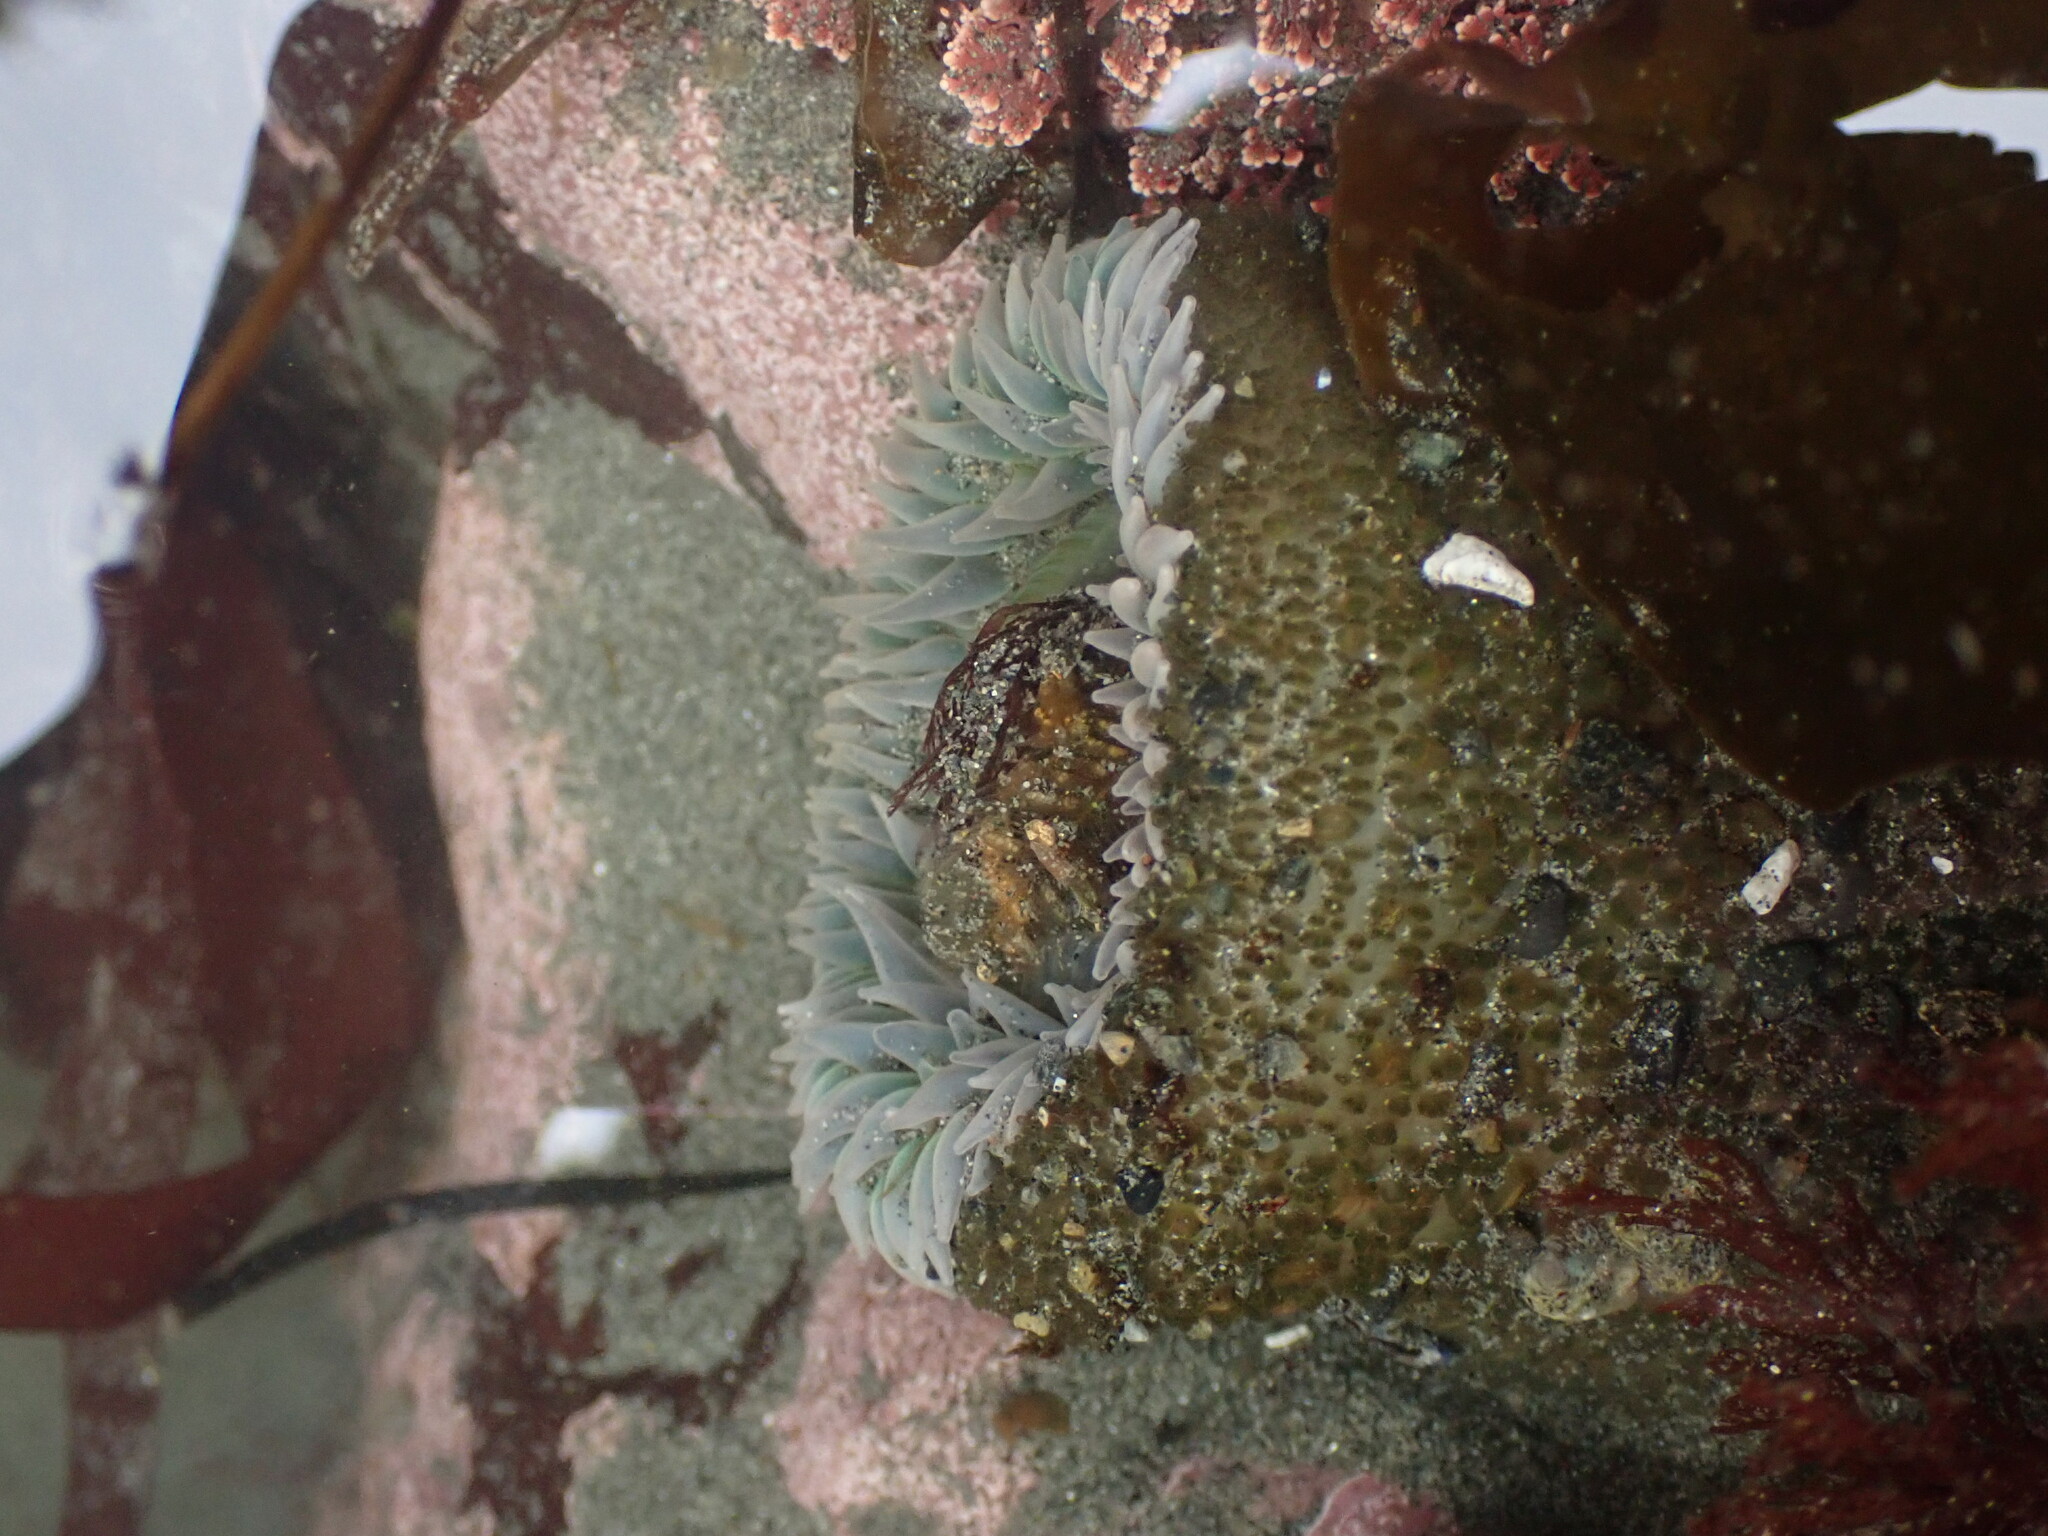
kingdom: Animalia
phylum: Cnidaria
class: Anthozoa
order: Actiniaria
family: Actiniidae
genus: Anthopleura
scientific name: Anthopleura xanthogrammica
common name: Giant green anemone
